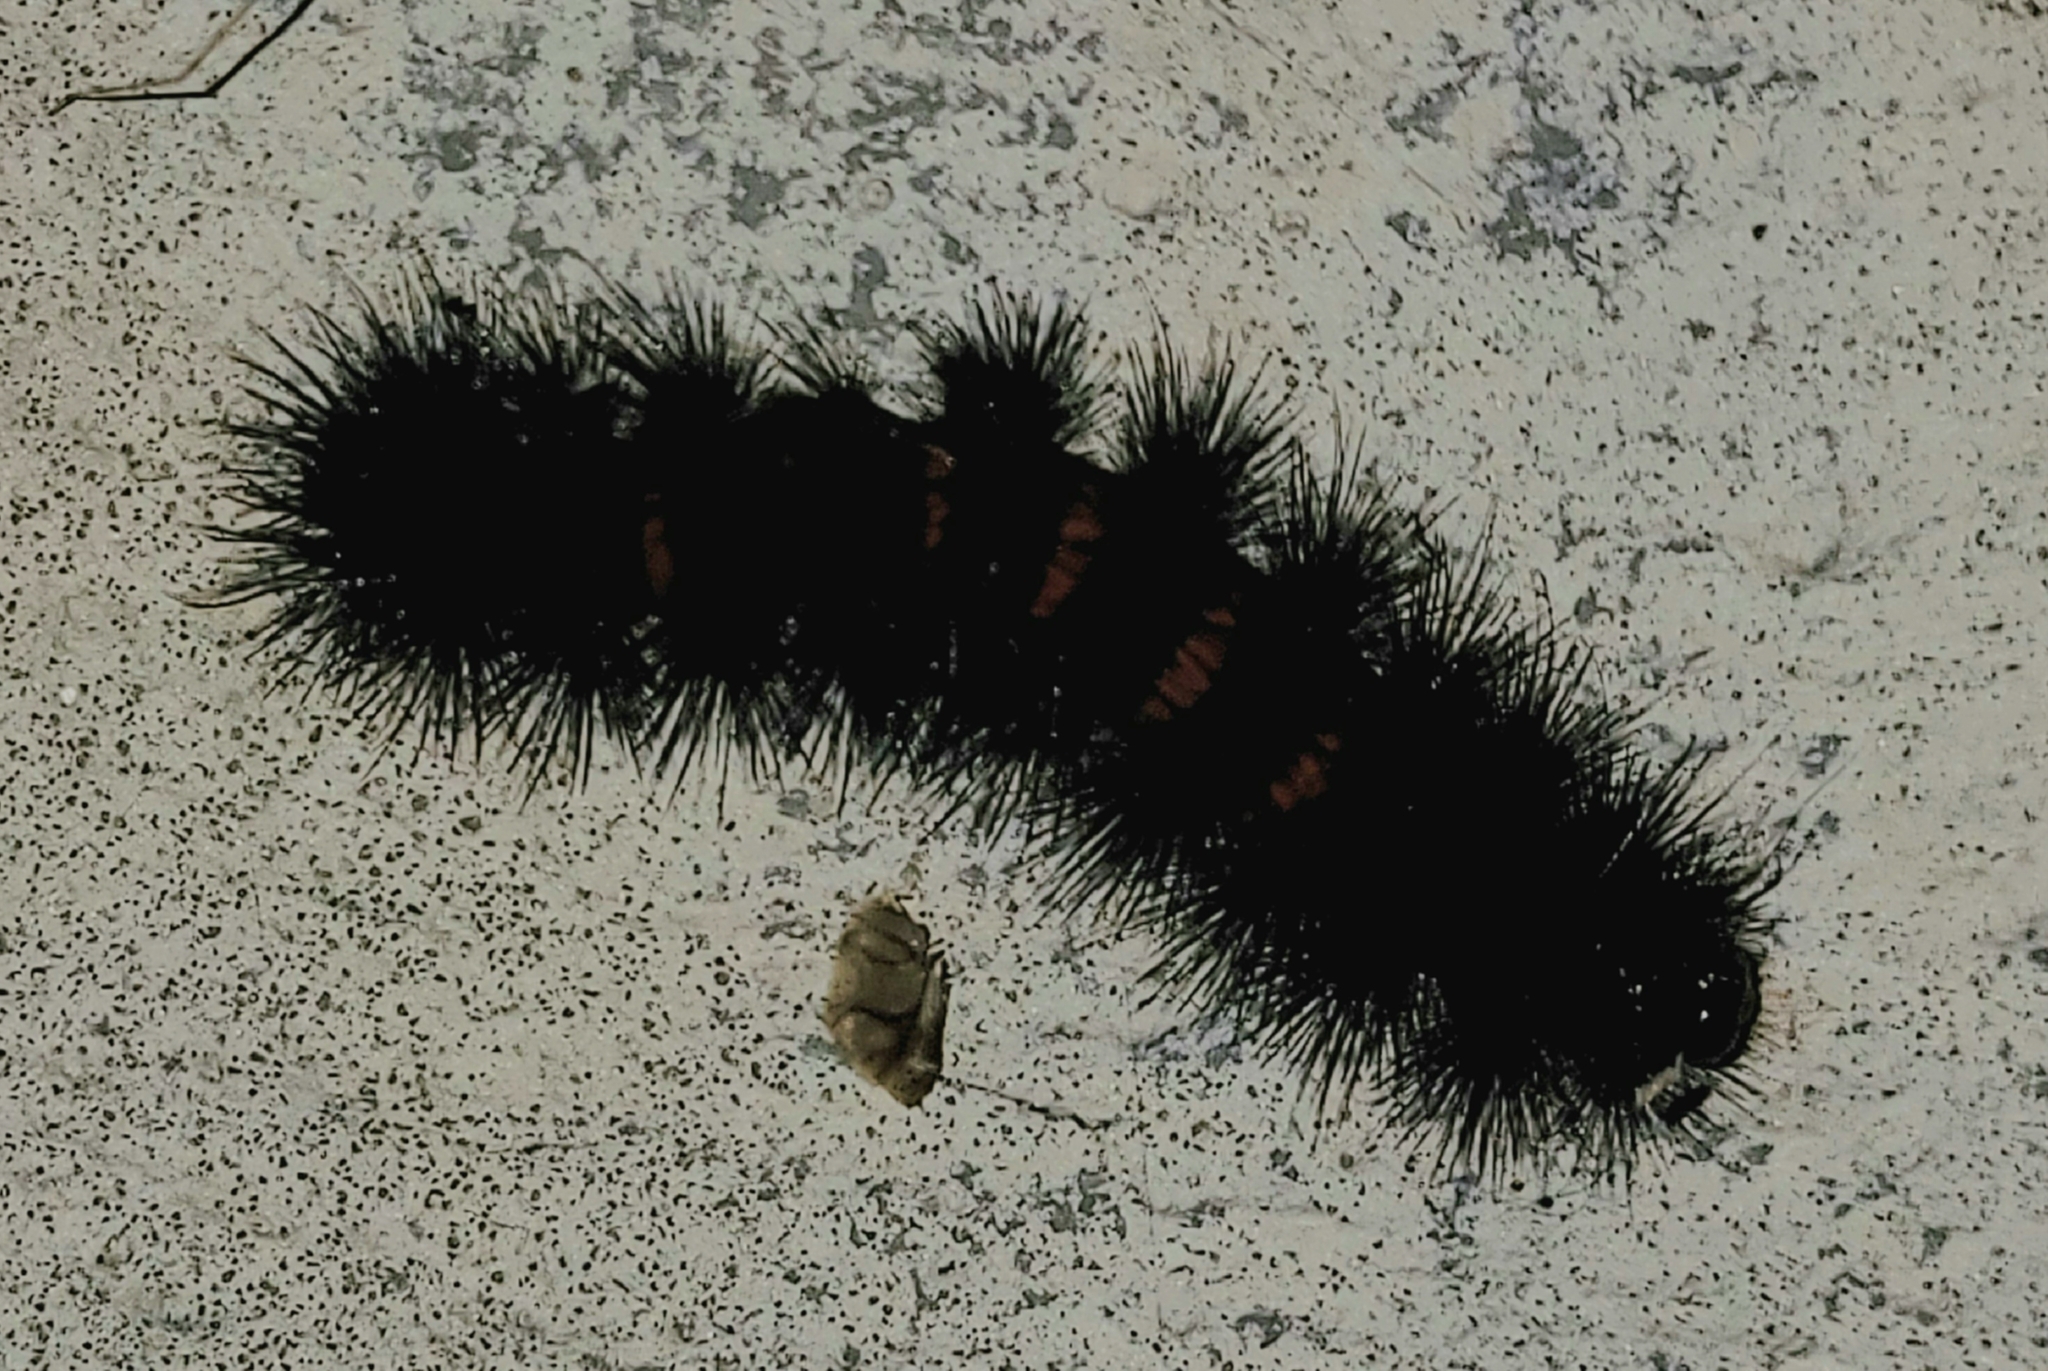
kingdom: Animalia
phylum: Arthropoda
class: Insecta
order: Lepidoptera
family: Erebidae
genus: Hypercompe
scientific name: Hypercompe scribonia
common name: Giant leopard moth
